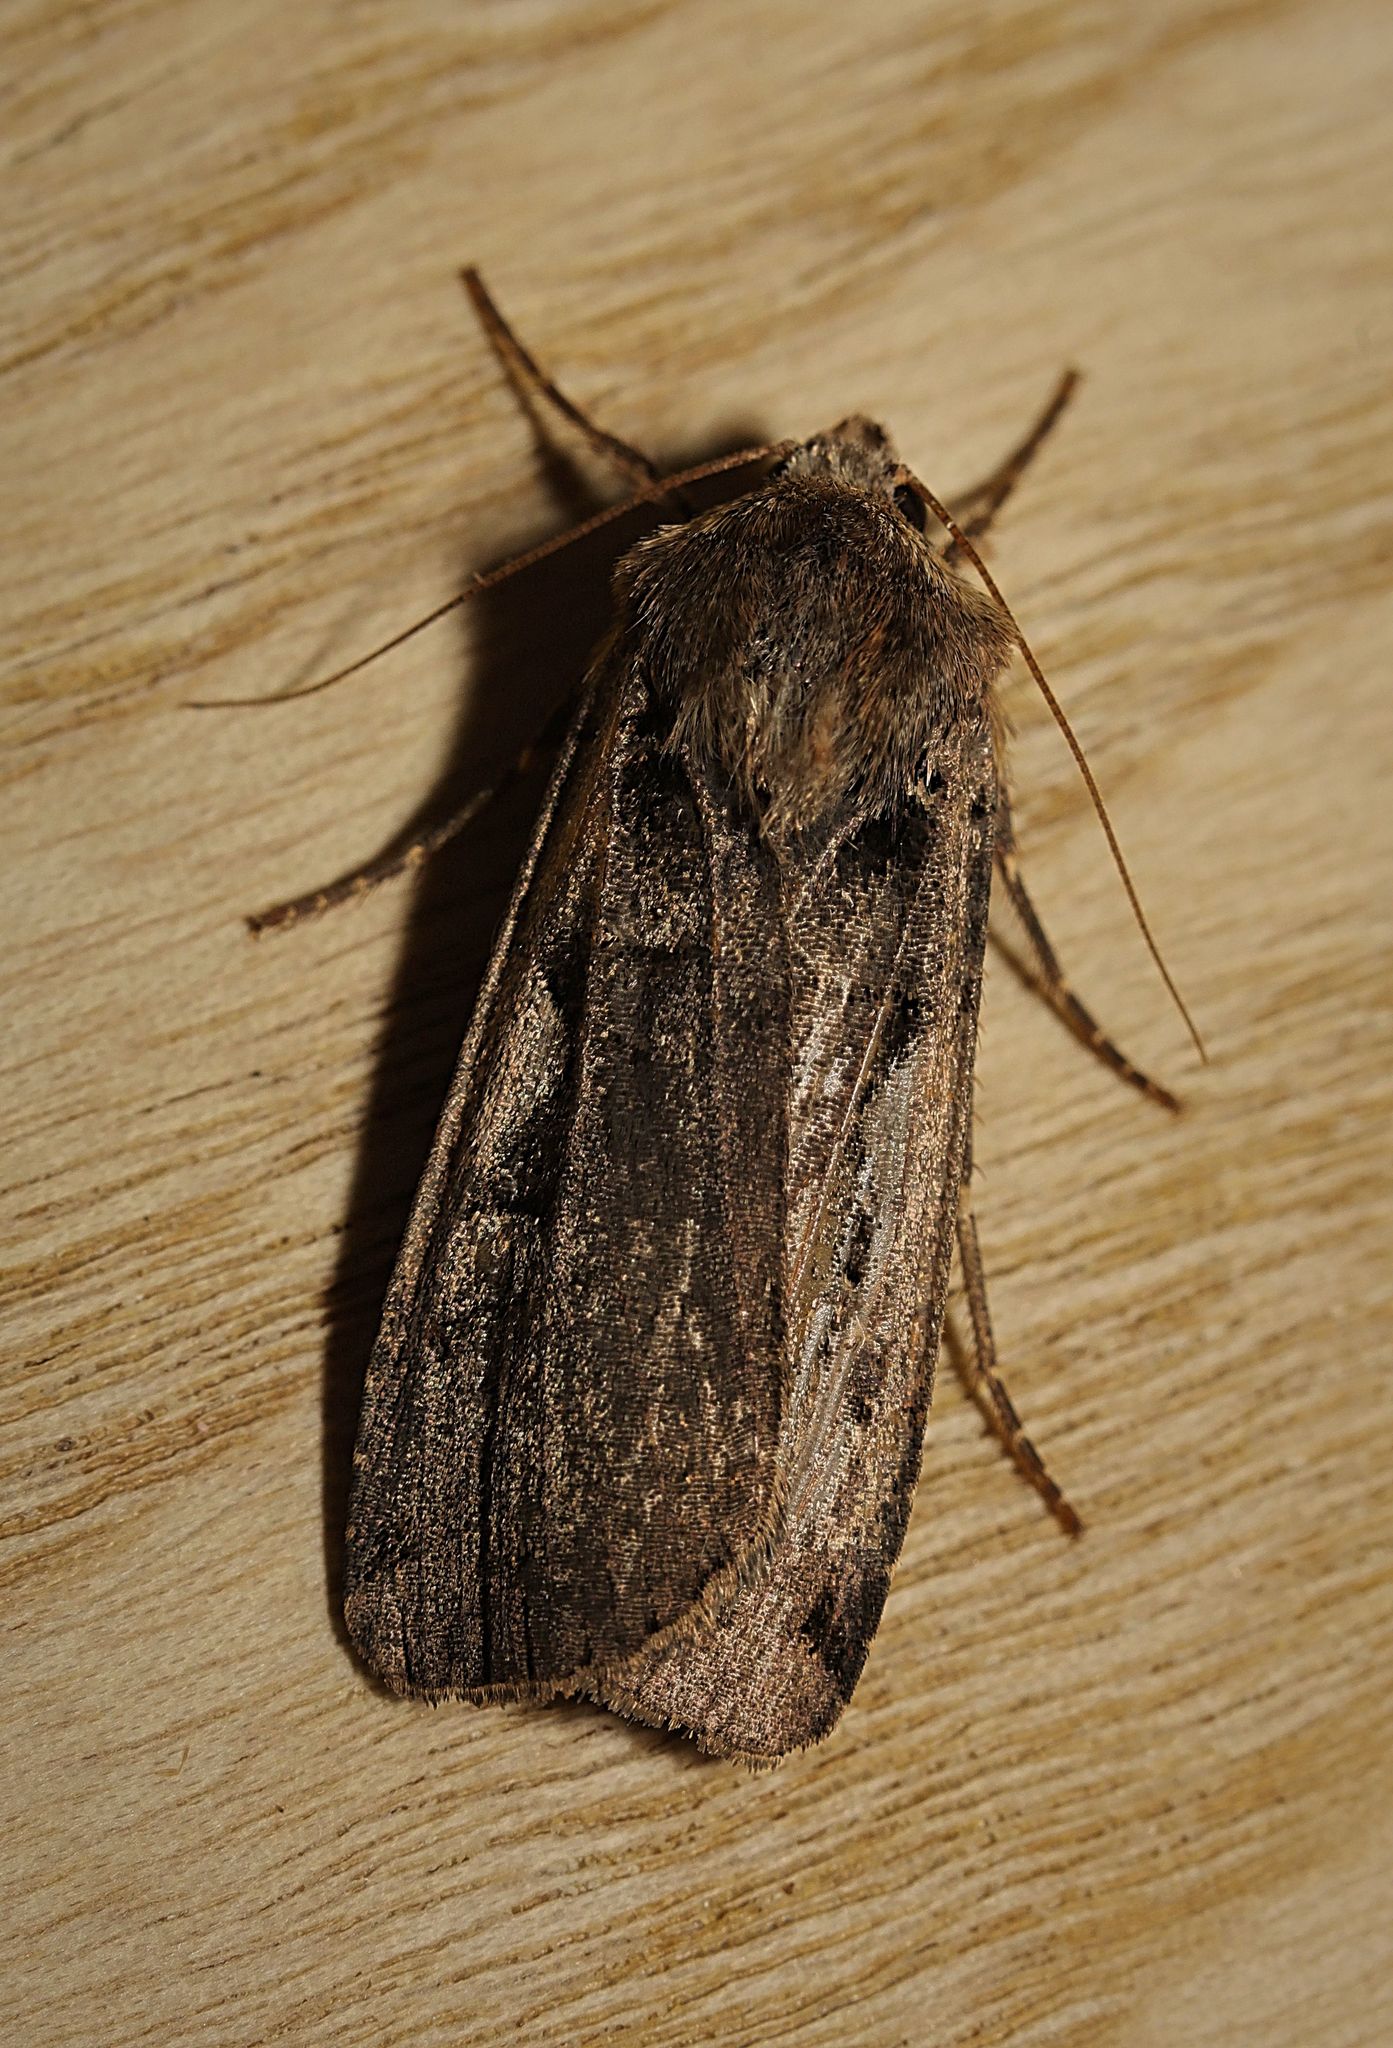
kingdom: Animalia
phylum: Arthropoda
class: Insecta
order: Lepidoptera
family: Noctuidae
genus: Xestia
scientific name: Xestia c-nigrum
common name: Setaceous hebrew character
